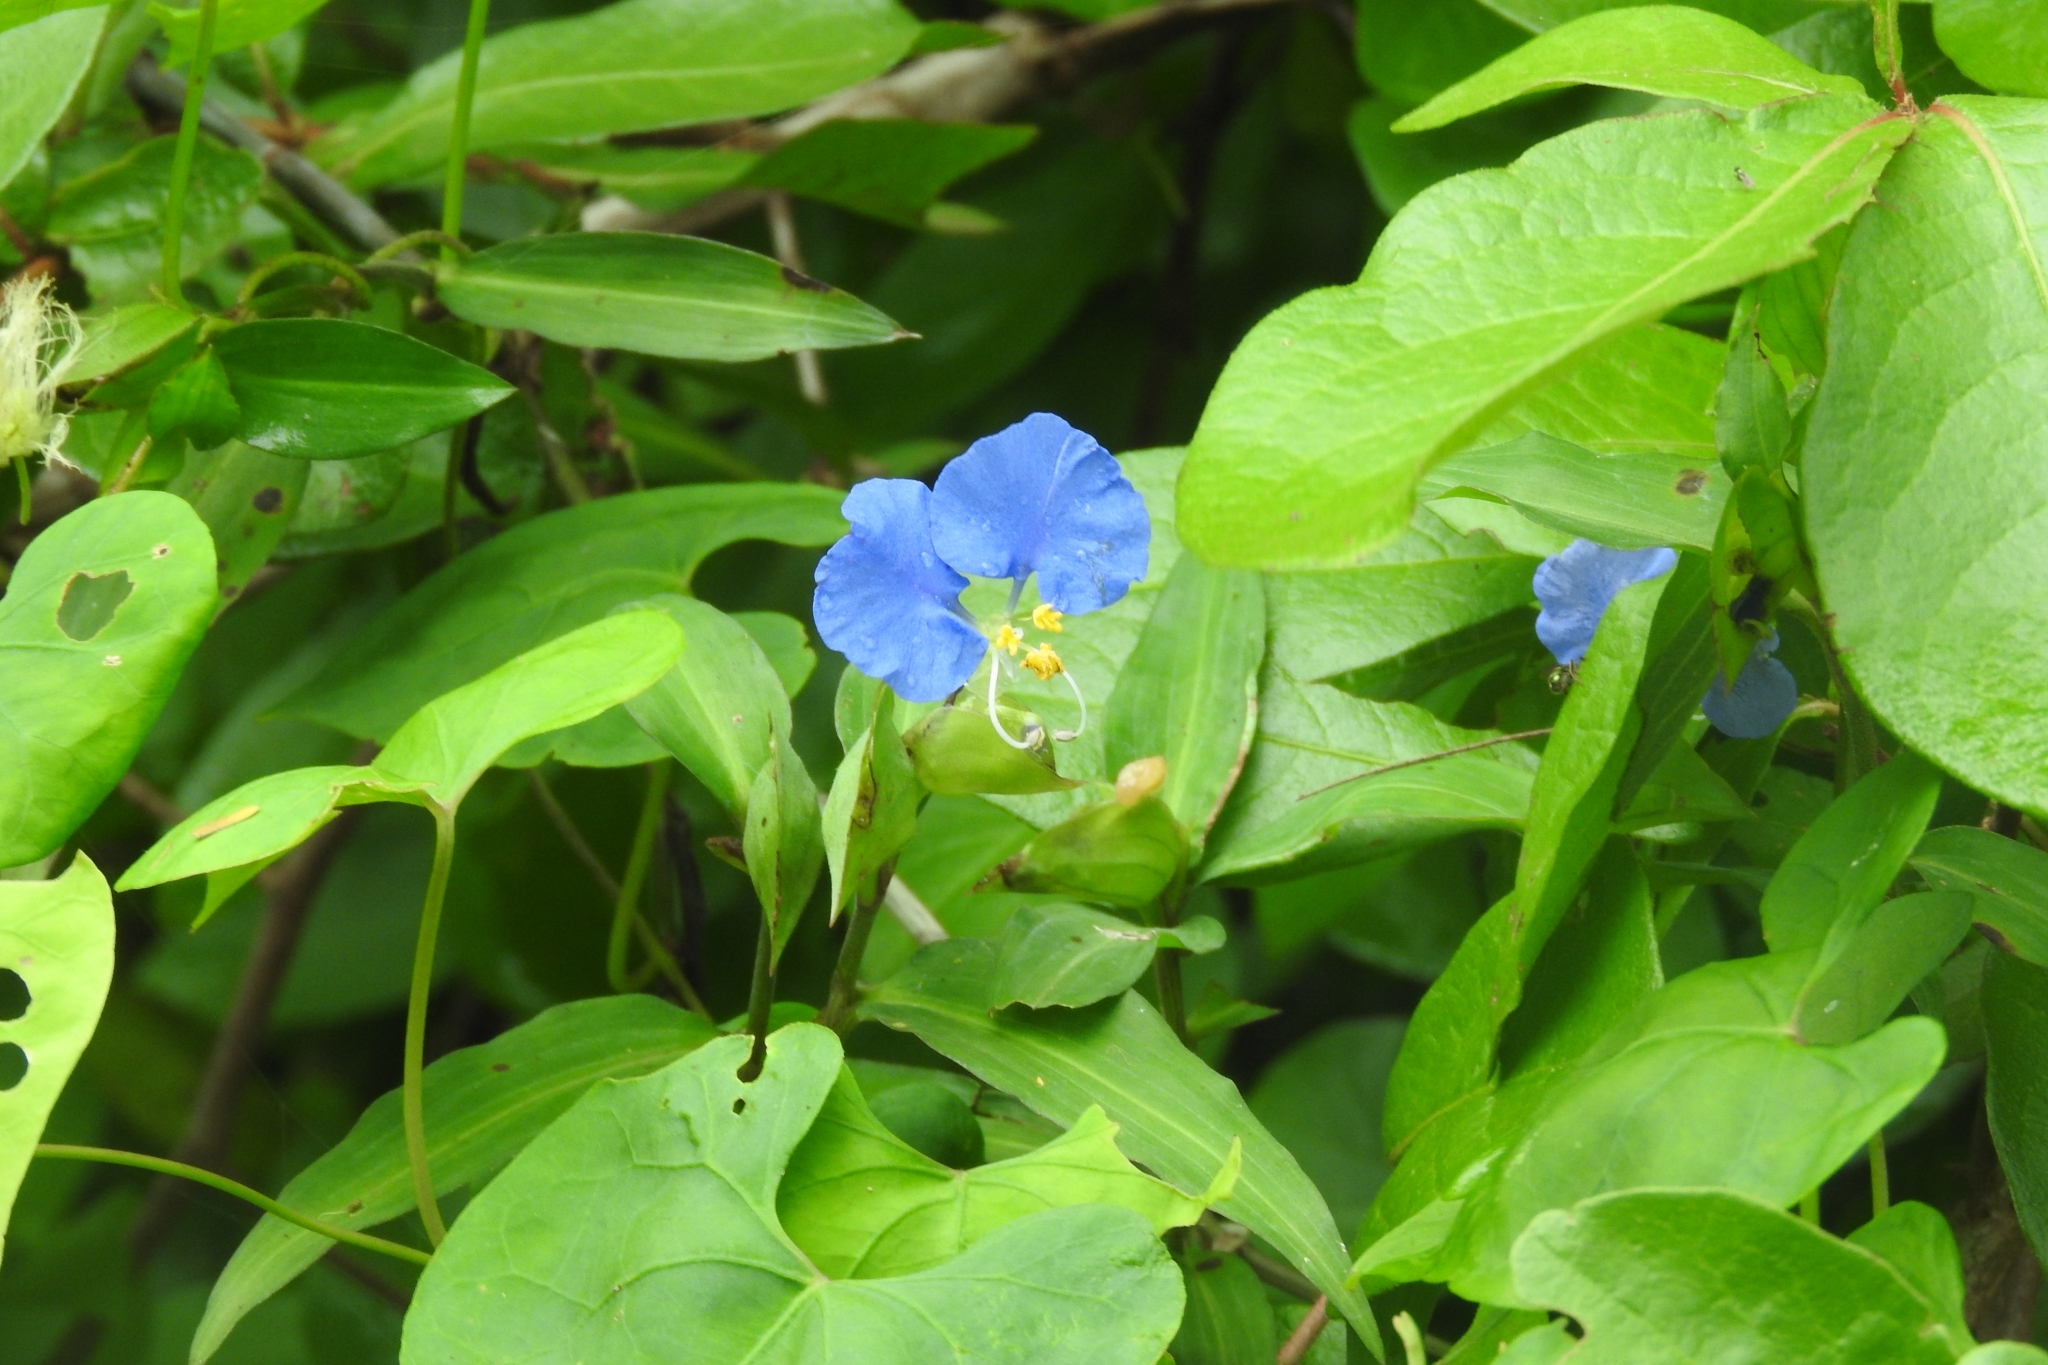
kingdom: Plantae
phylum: Tracheophyta
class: Liliopsida
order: Commelinales
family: Commelinaceae
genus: Commelina
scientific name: Commelina erecta
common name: Blousel blommetjie
